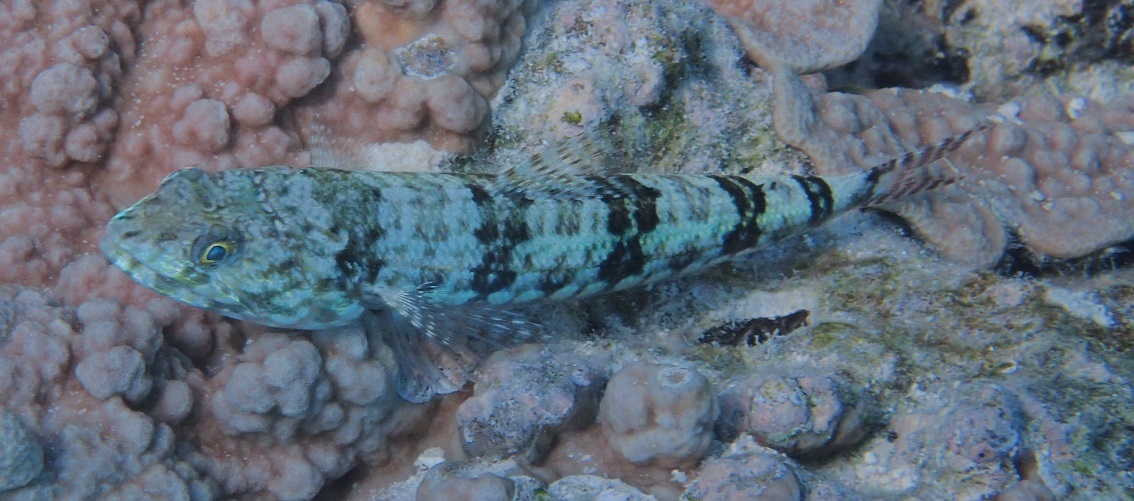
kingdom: Animalia
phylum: Chordata
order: Aulopiformes
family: Synodontidae
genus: Synodus
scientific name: Synodus variegatus
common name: Variegated lizardfish
